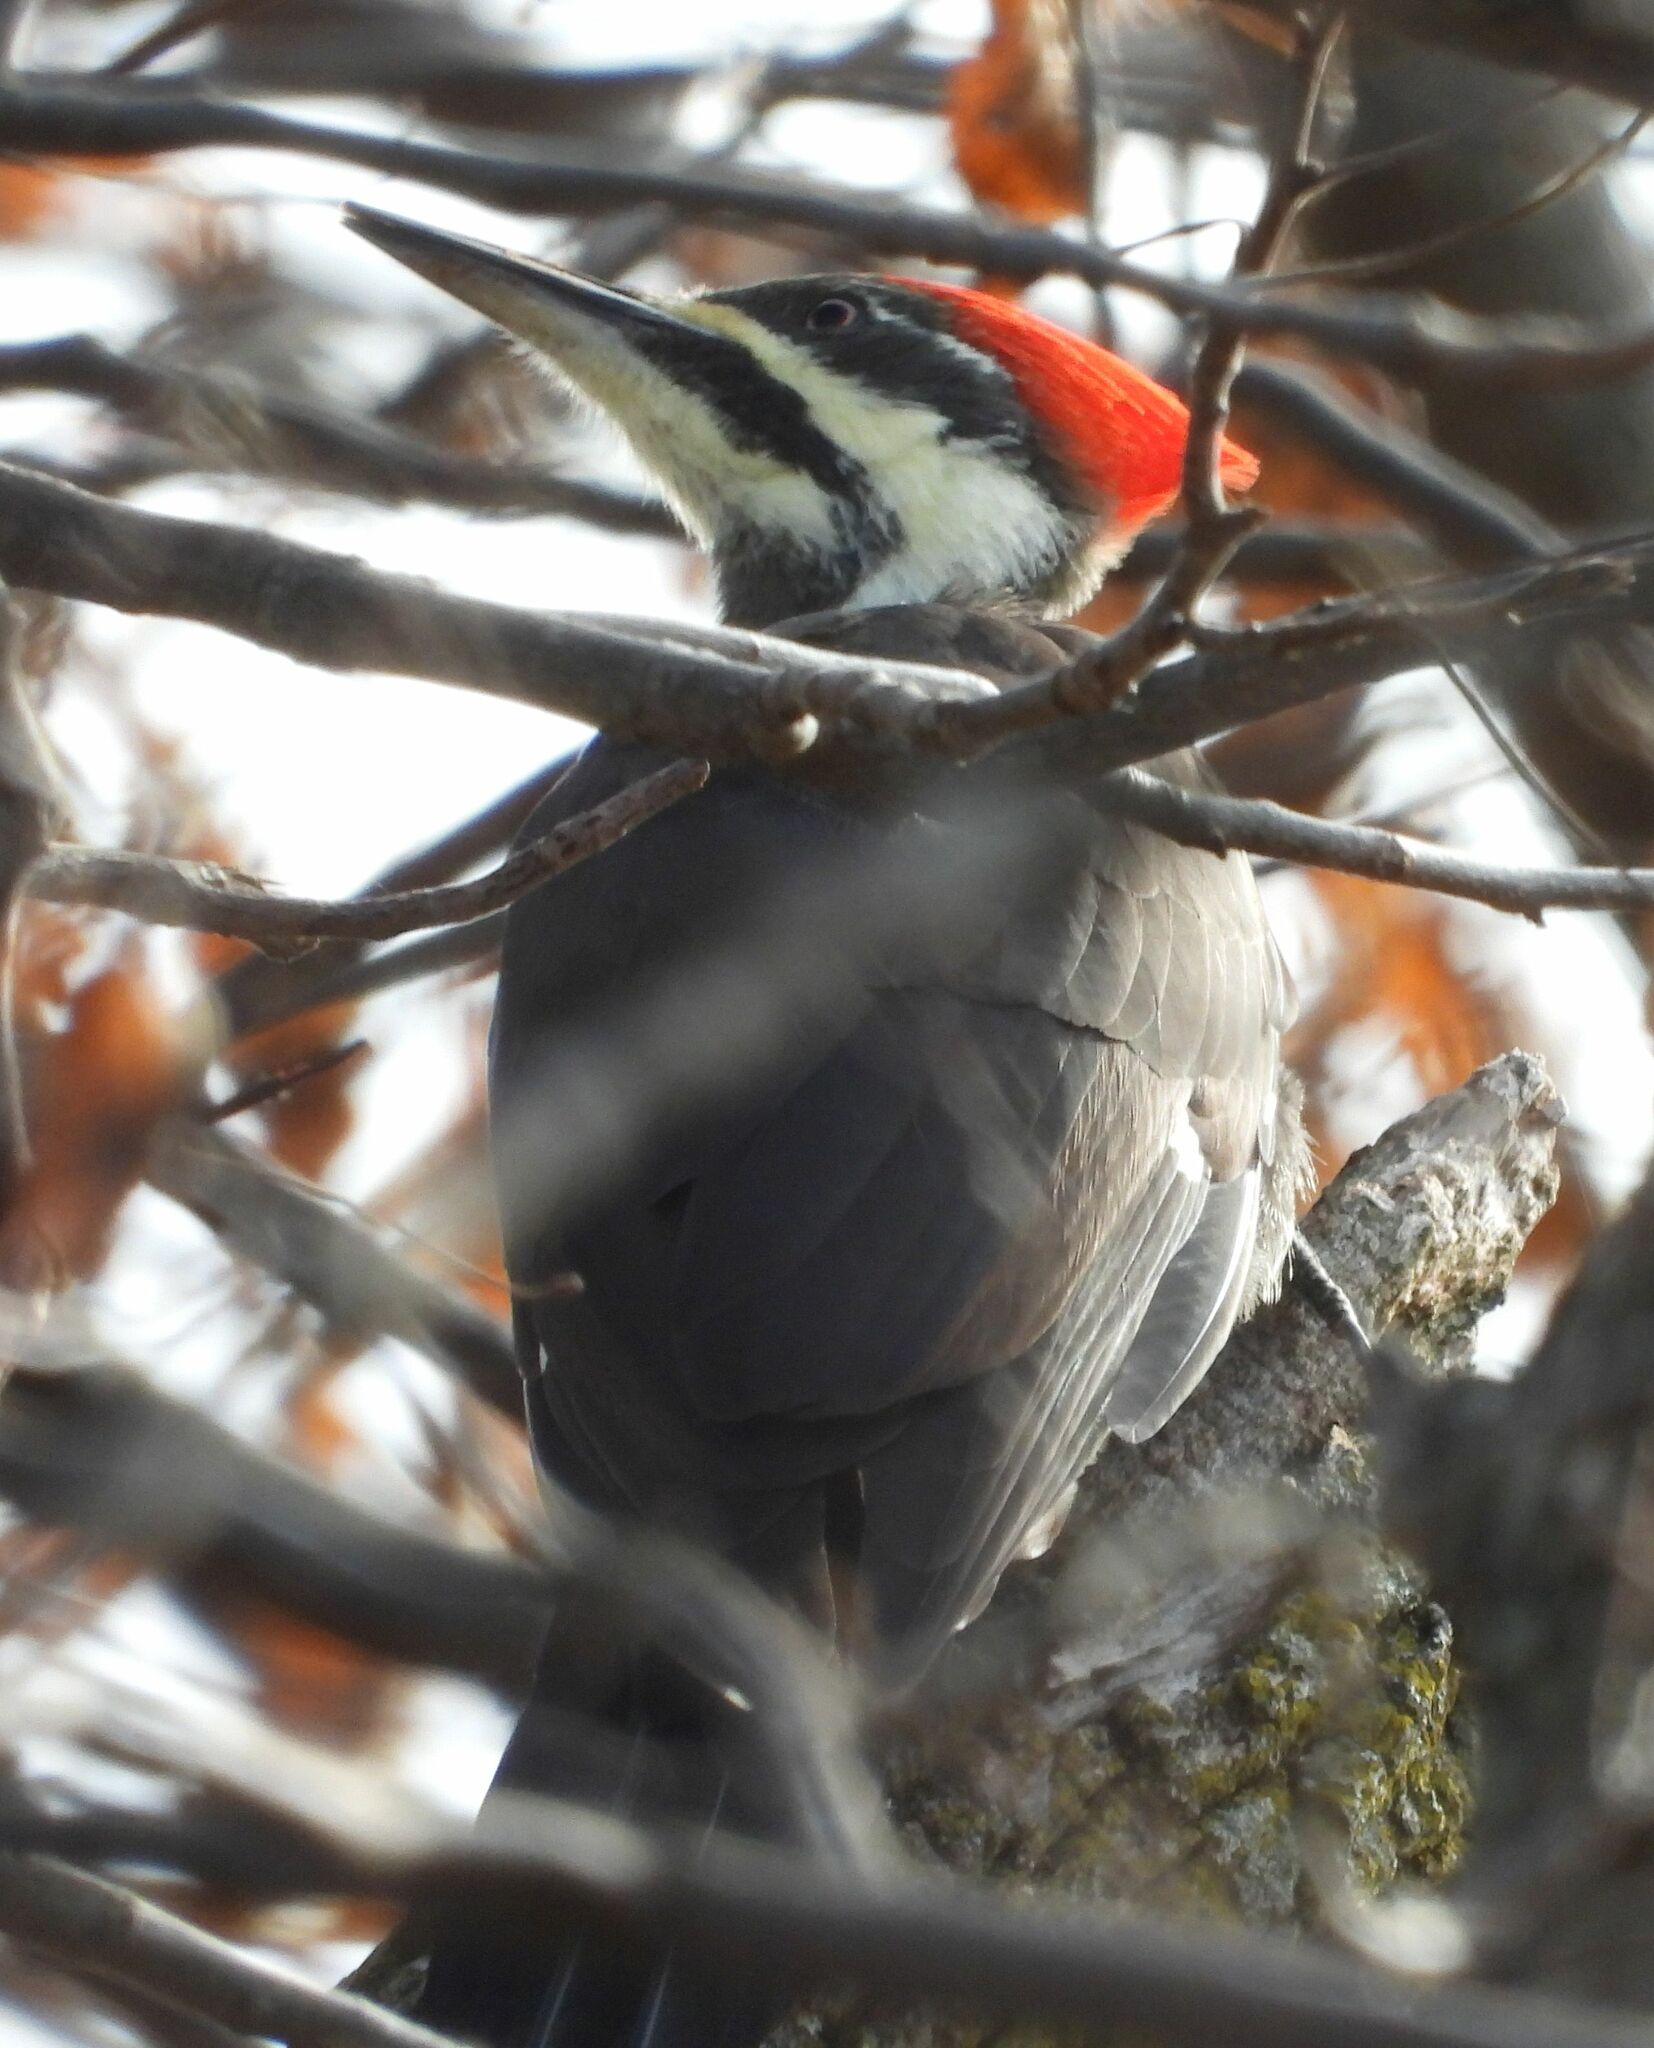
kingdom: Animalia
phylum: Chordata
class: Aves
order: Piciformes
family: Picidae
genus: Dryocopus
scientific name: Dryocopus pileatus
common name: Pileated woodpecker
